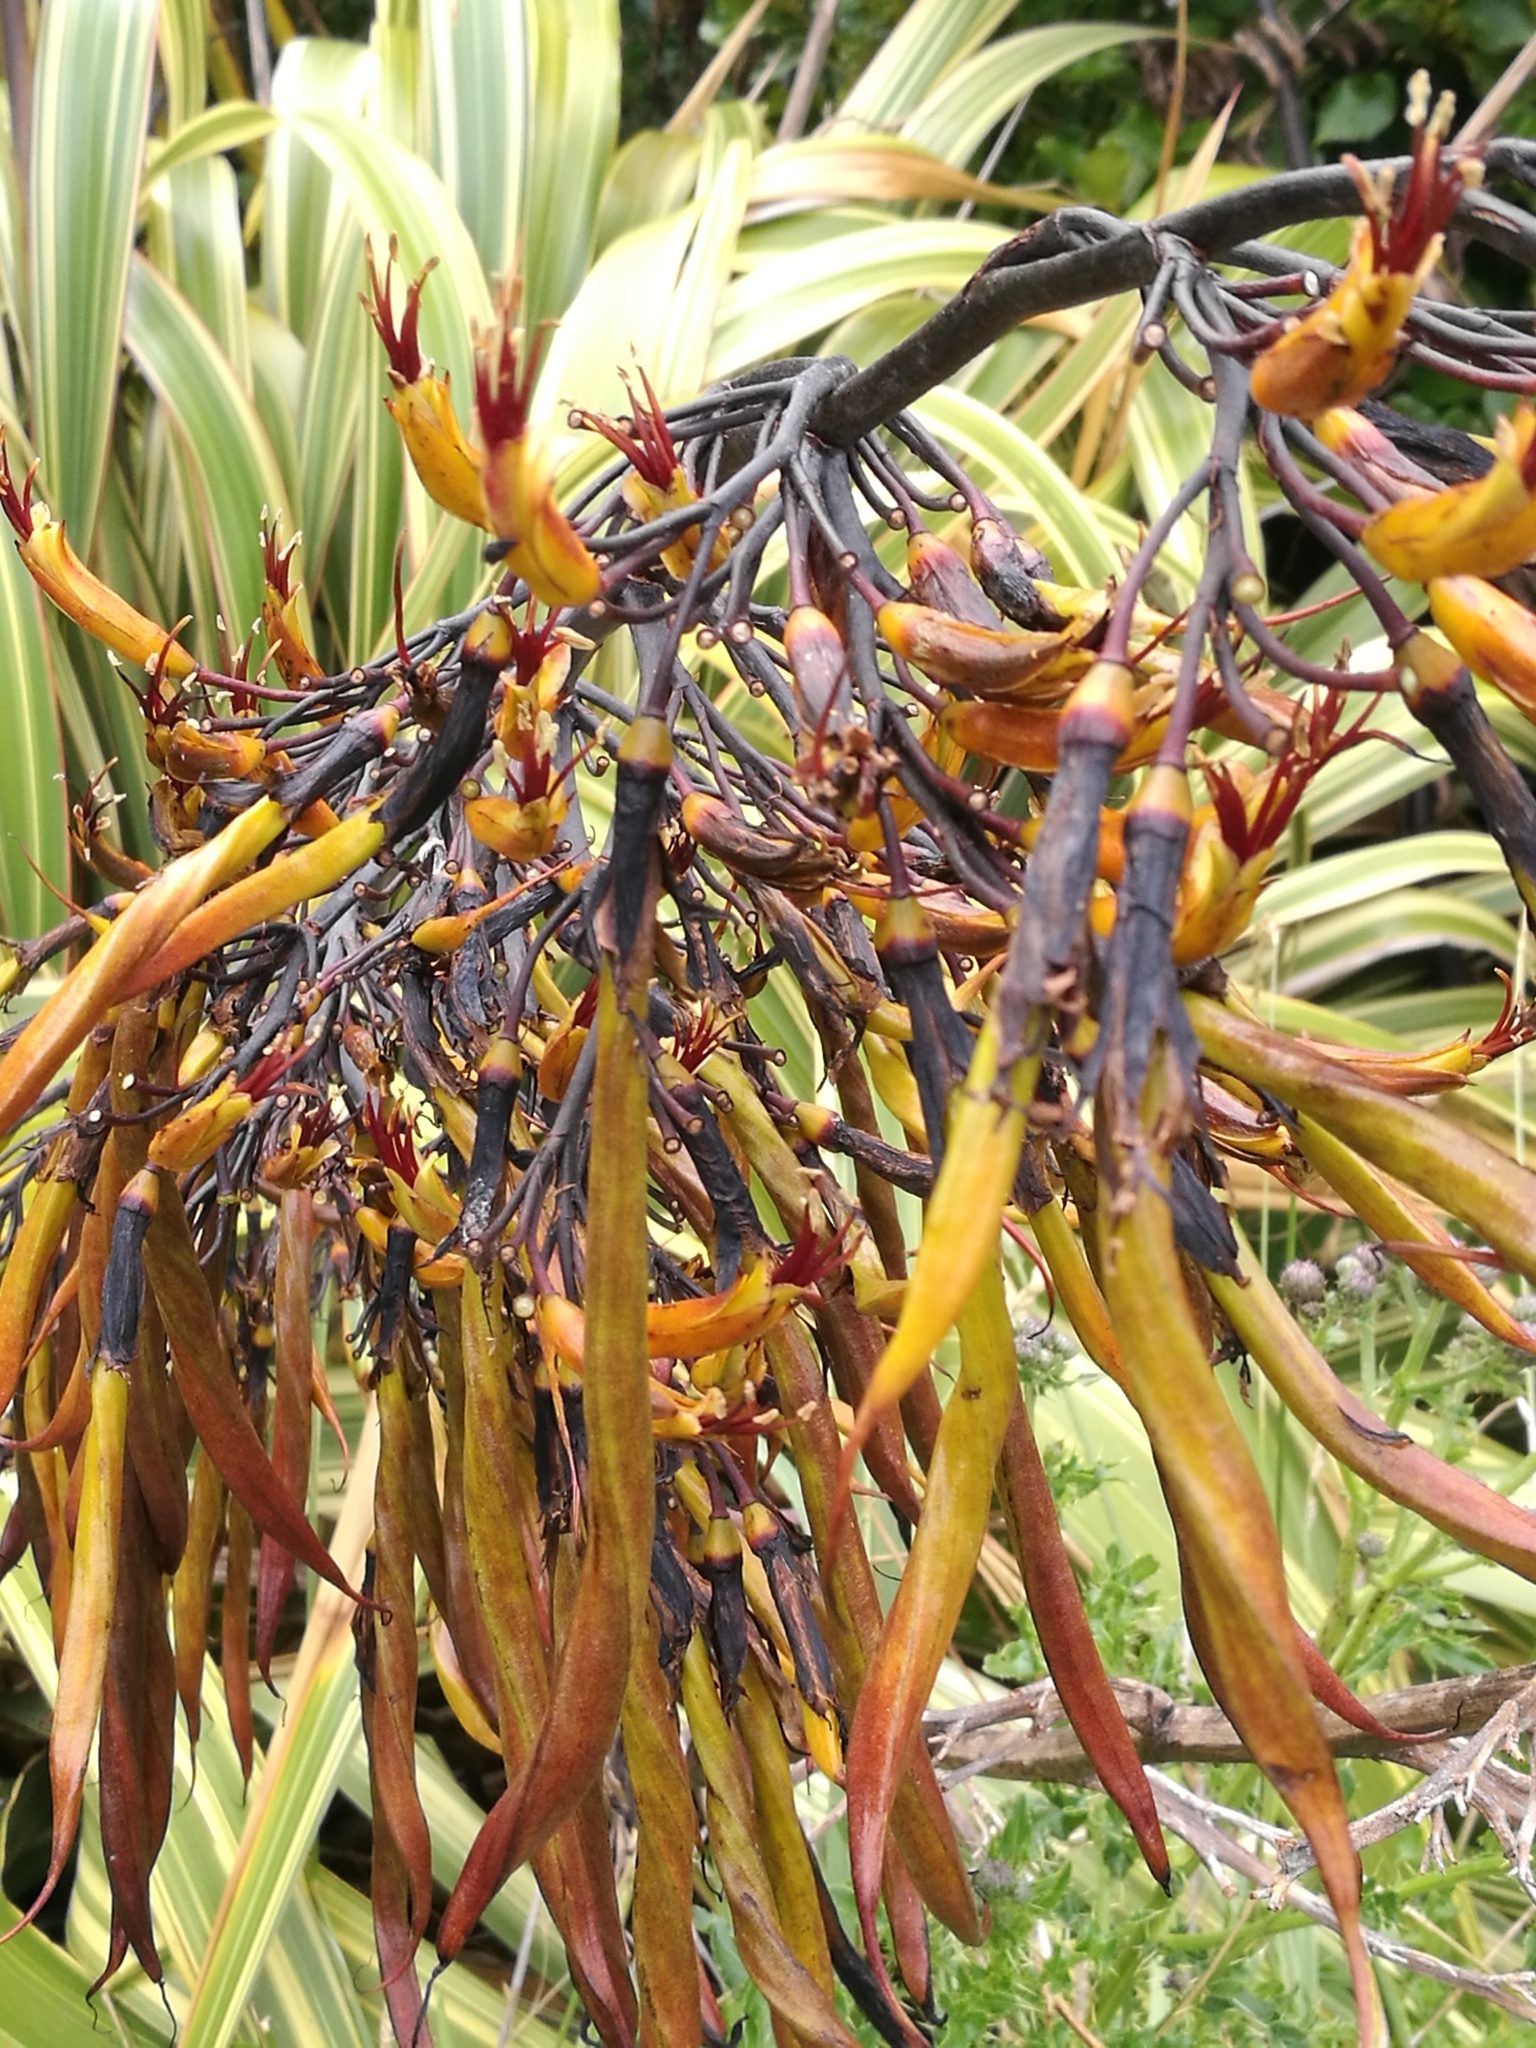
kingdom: Plantae
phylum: Tracheophyta
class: Liliopsida
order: Asparagales
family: Asphodelaceae
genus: Phormium
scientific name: Phormium colensoi
